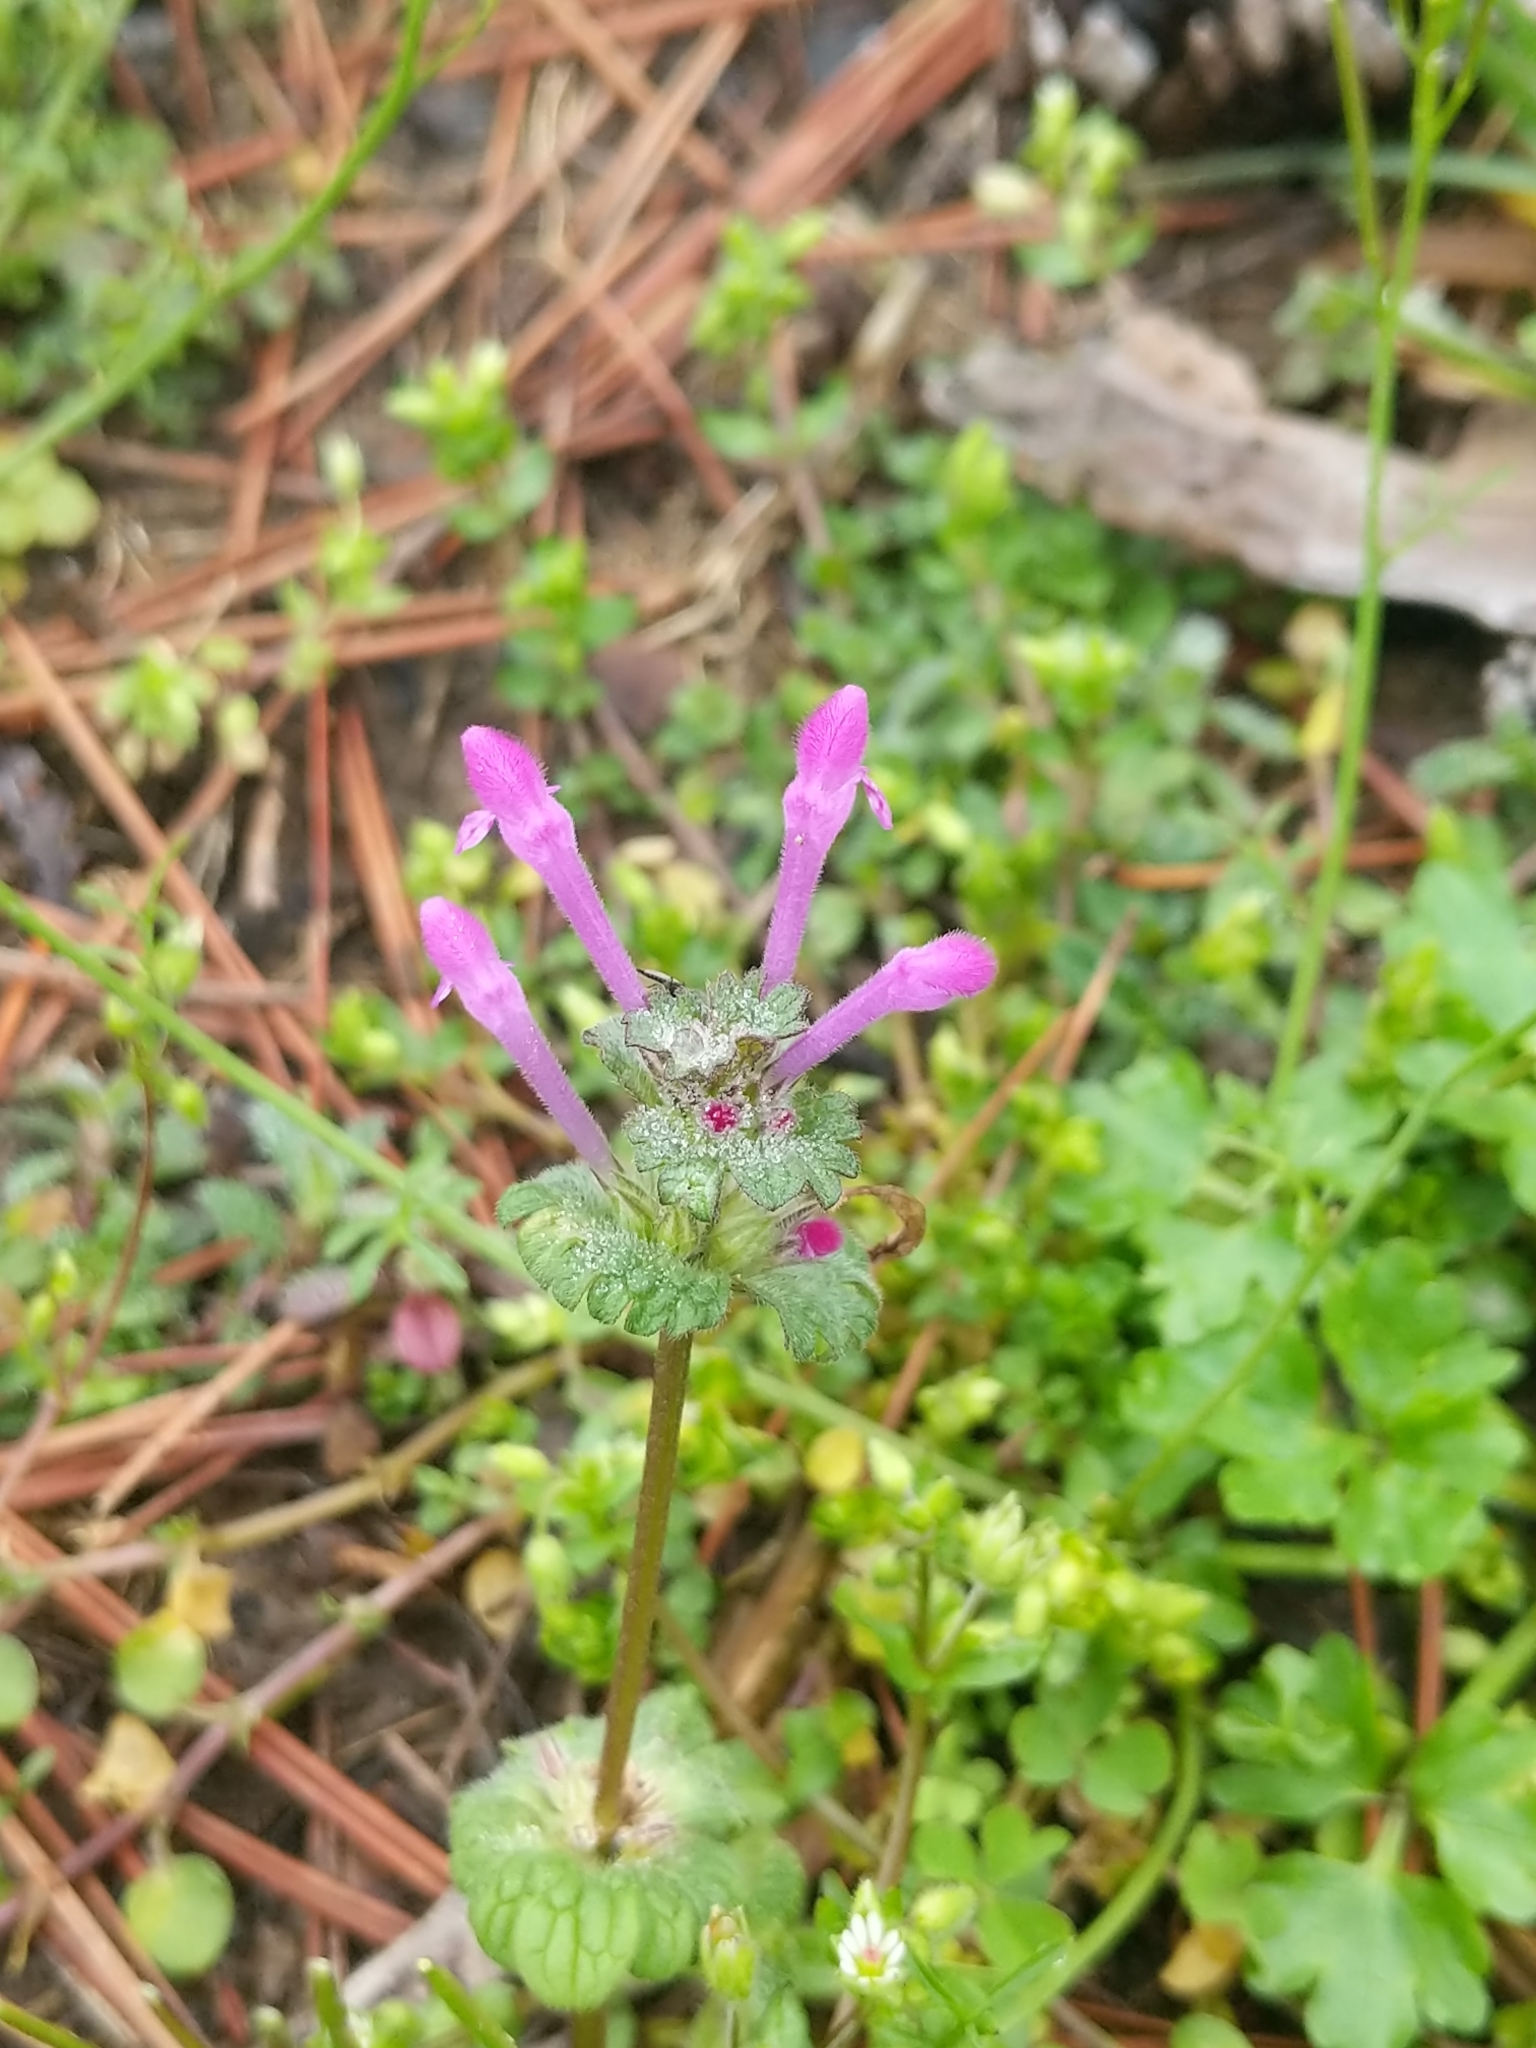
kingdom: Plantae
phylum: Tracheophyta
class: Magnoliopsida
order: Lamiales
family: Lamiaceae
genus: Lamium
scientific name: Lamium amplexicaule
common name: Henbit dead-nettle
